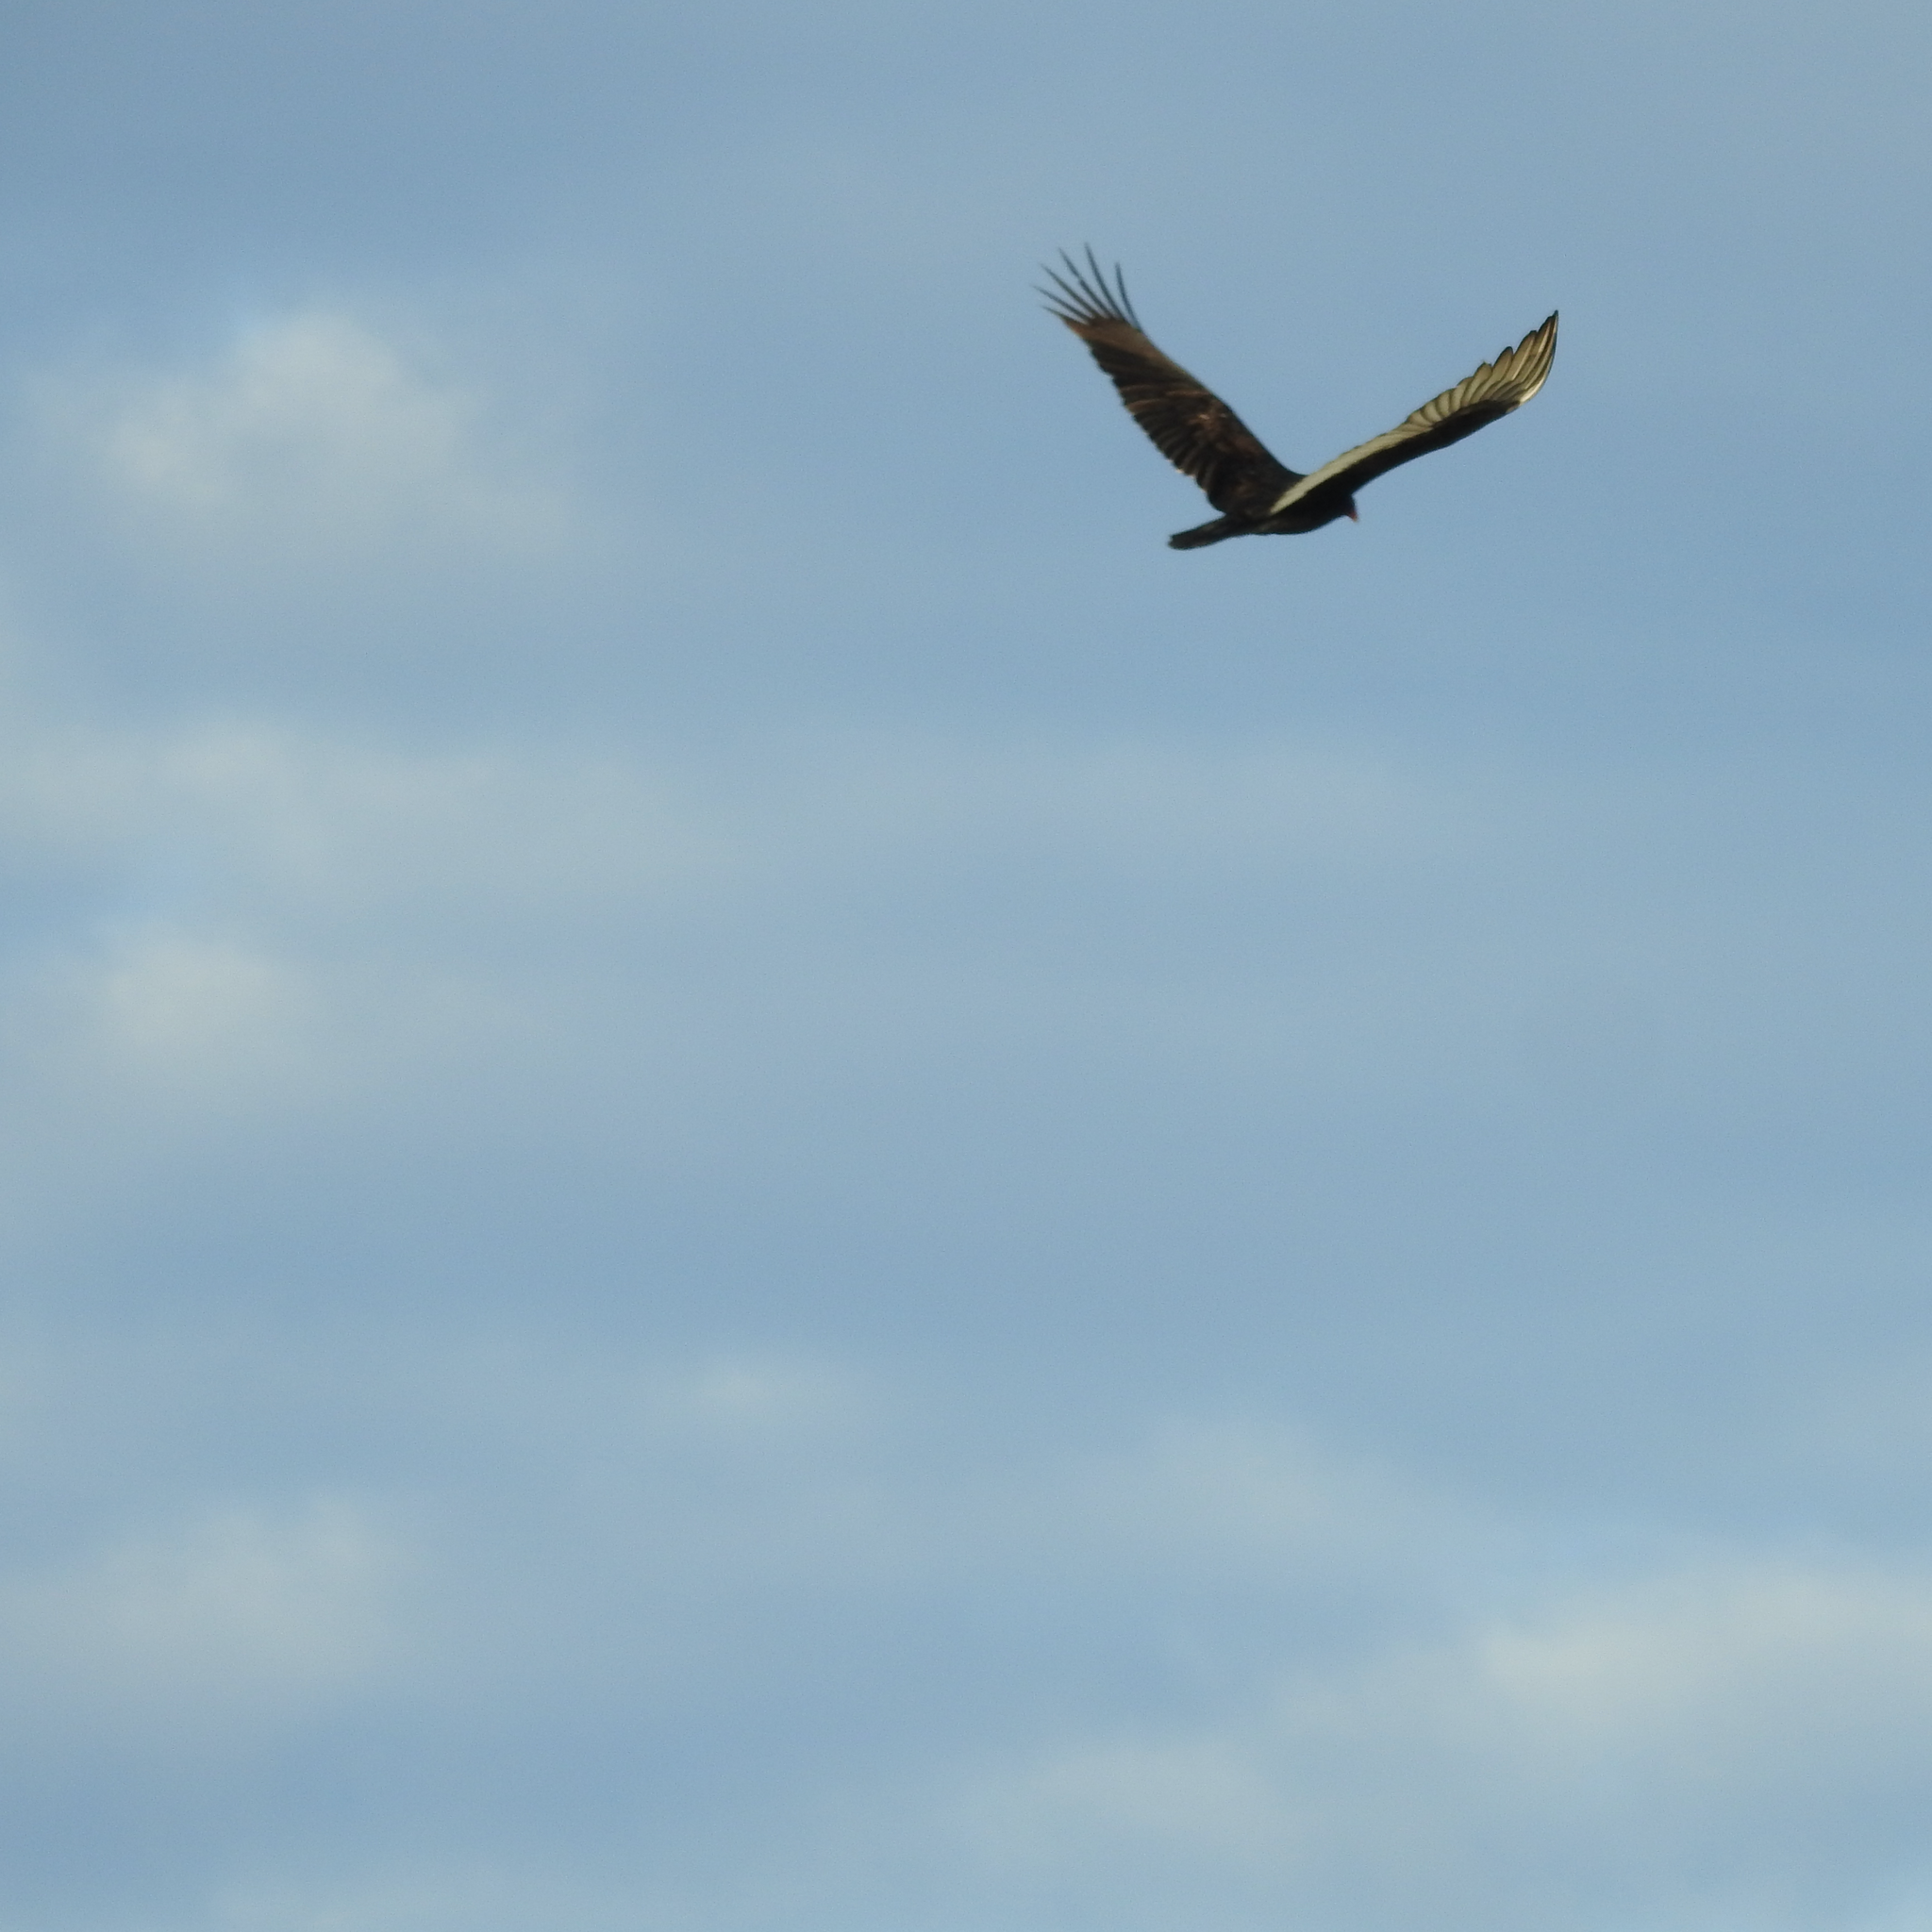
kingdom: Animalia
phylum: Chordata
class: Aves
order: Accipitriformes
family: Cathartidae
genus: Cathartes
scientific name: Cathartes aura
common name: Turkey vulture
